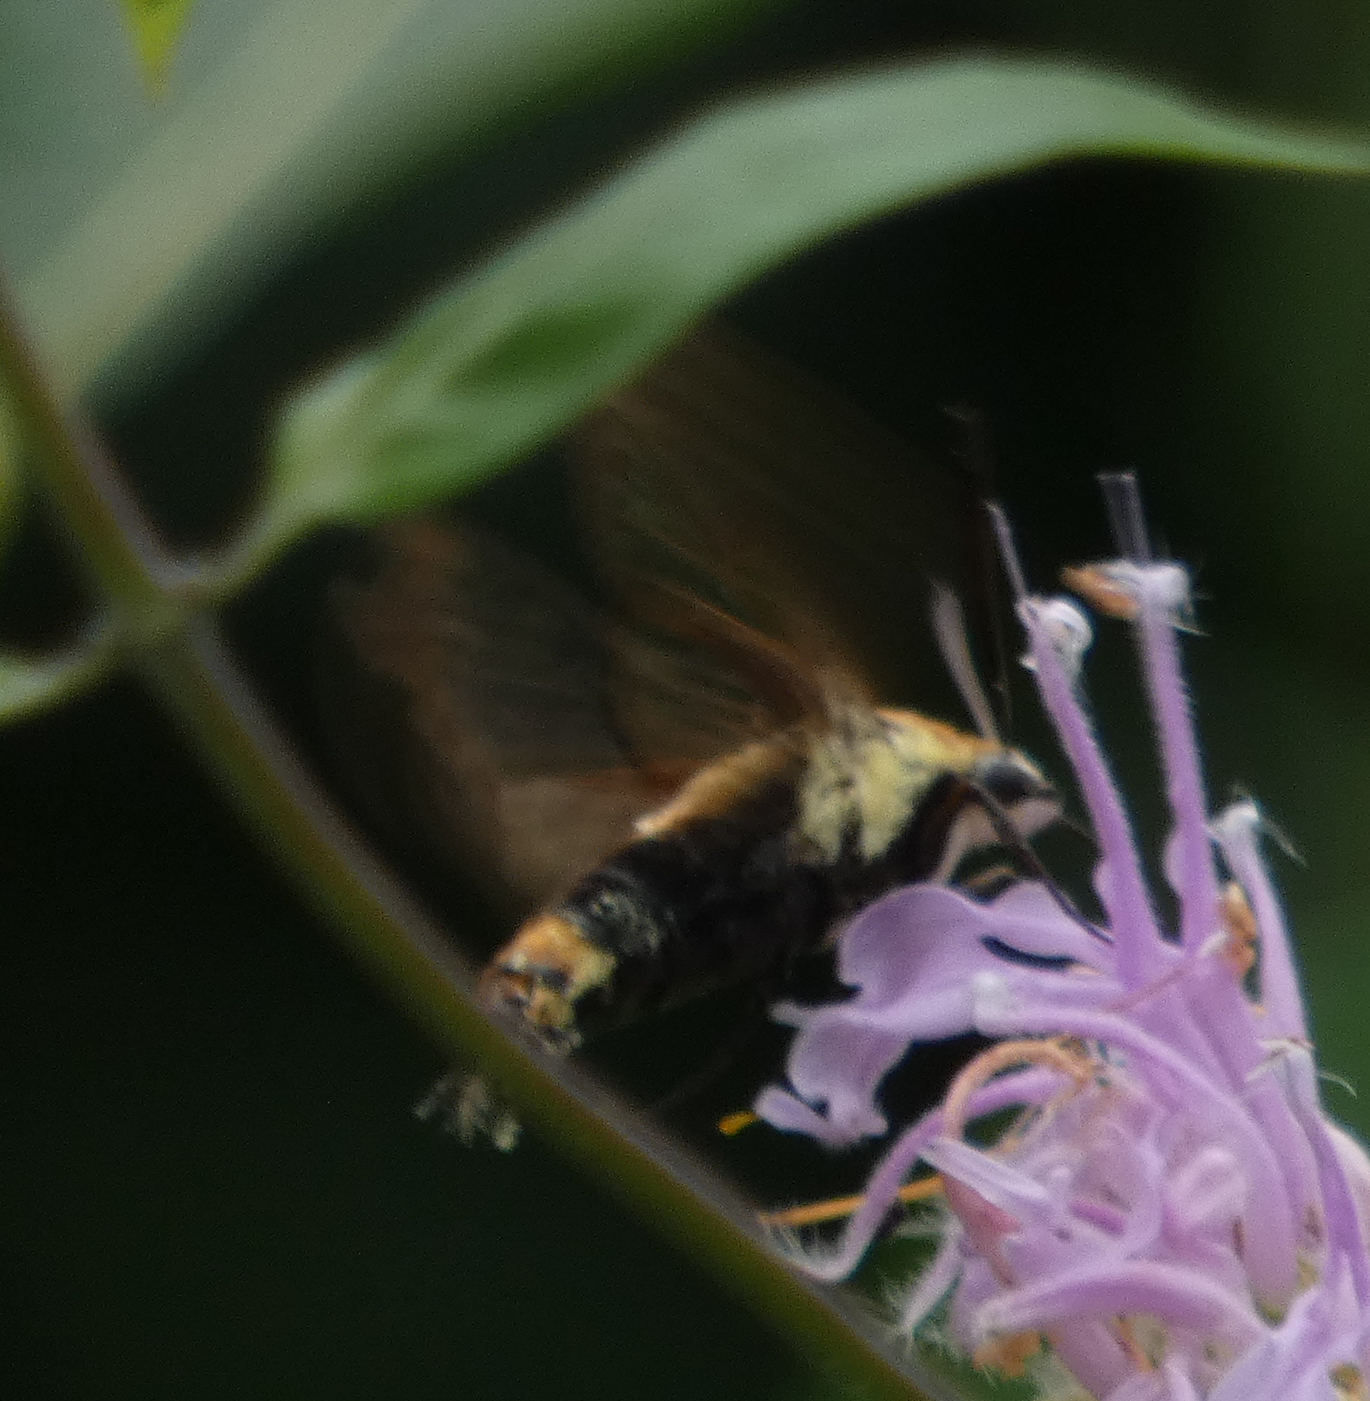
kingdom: Animalia
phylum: Arthropoda
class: Insecta
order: Lepidoptera
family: Sphingidae
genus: Hemaris
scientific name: Hemaris diffinis
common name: Bumblebee moth
